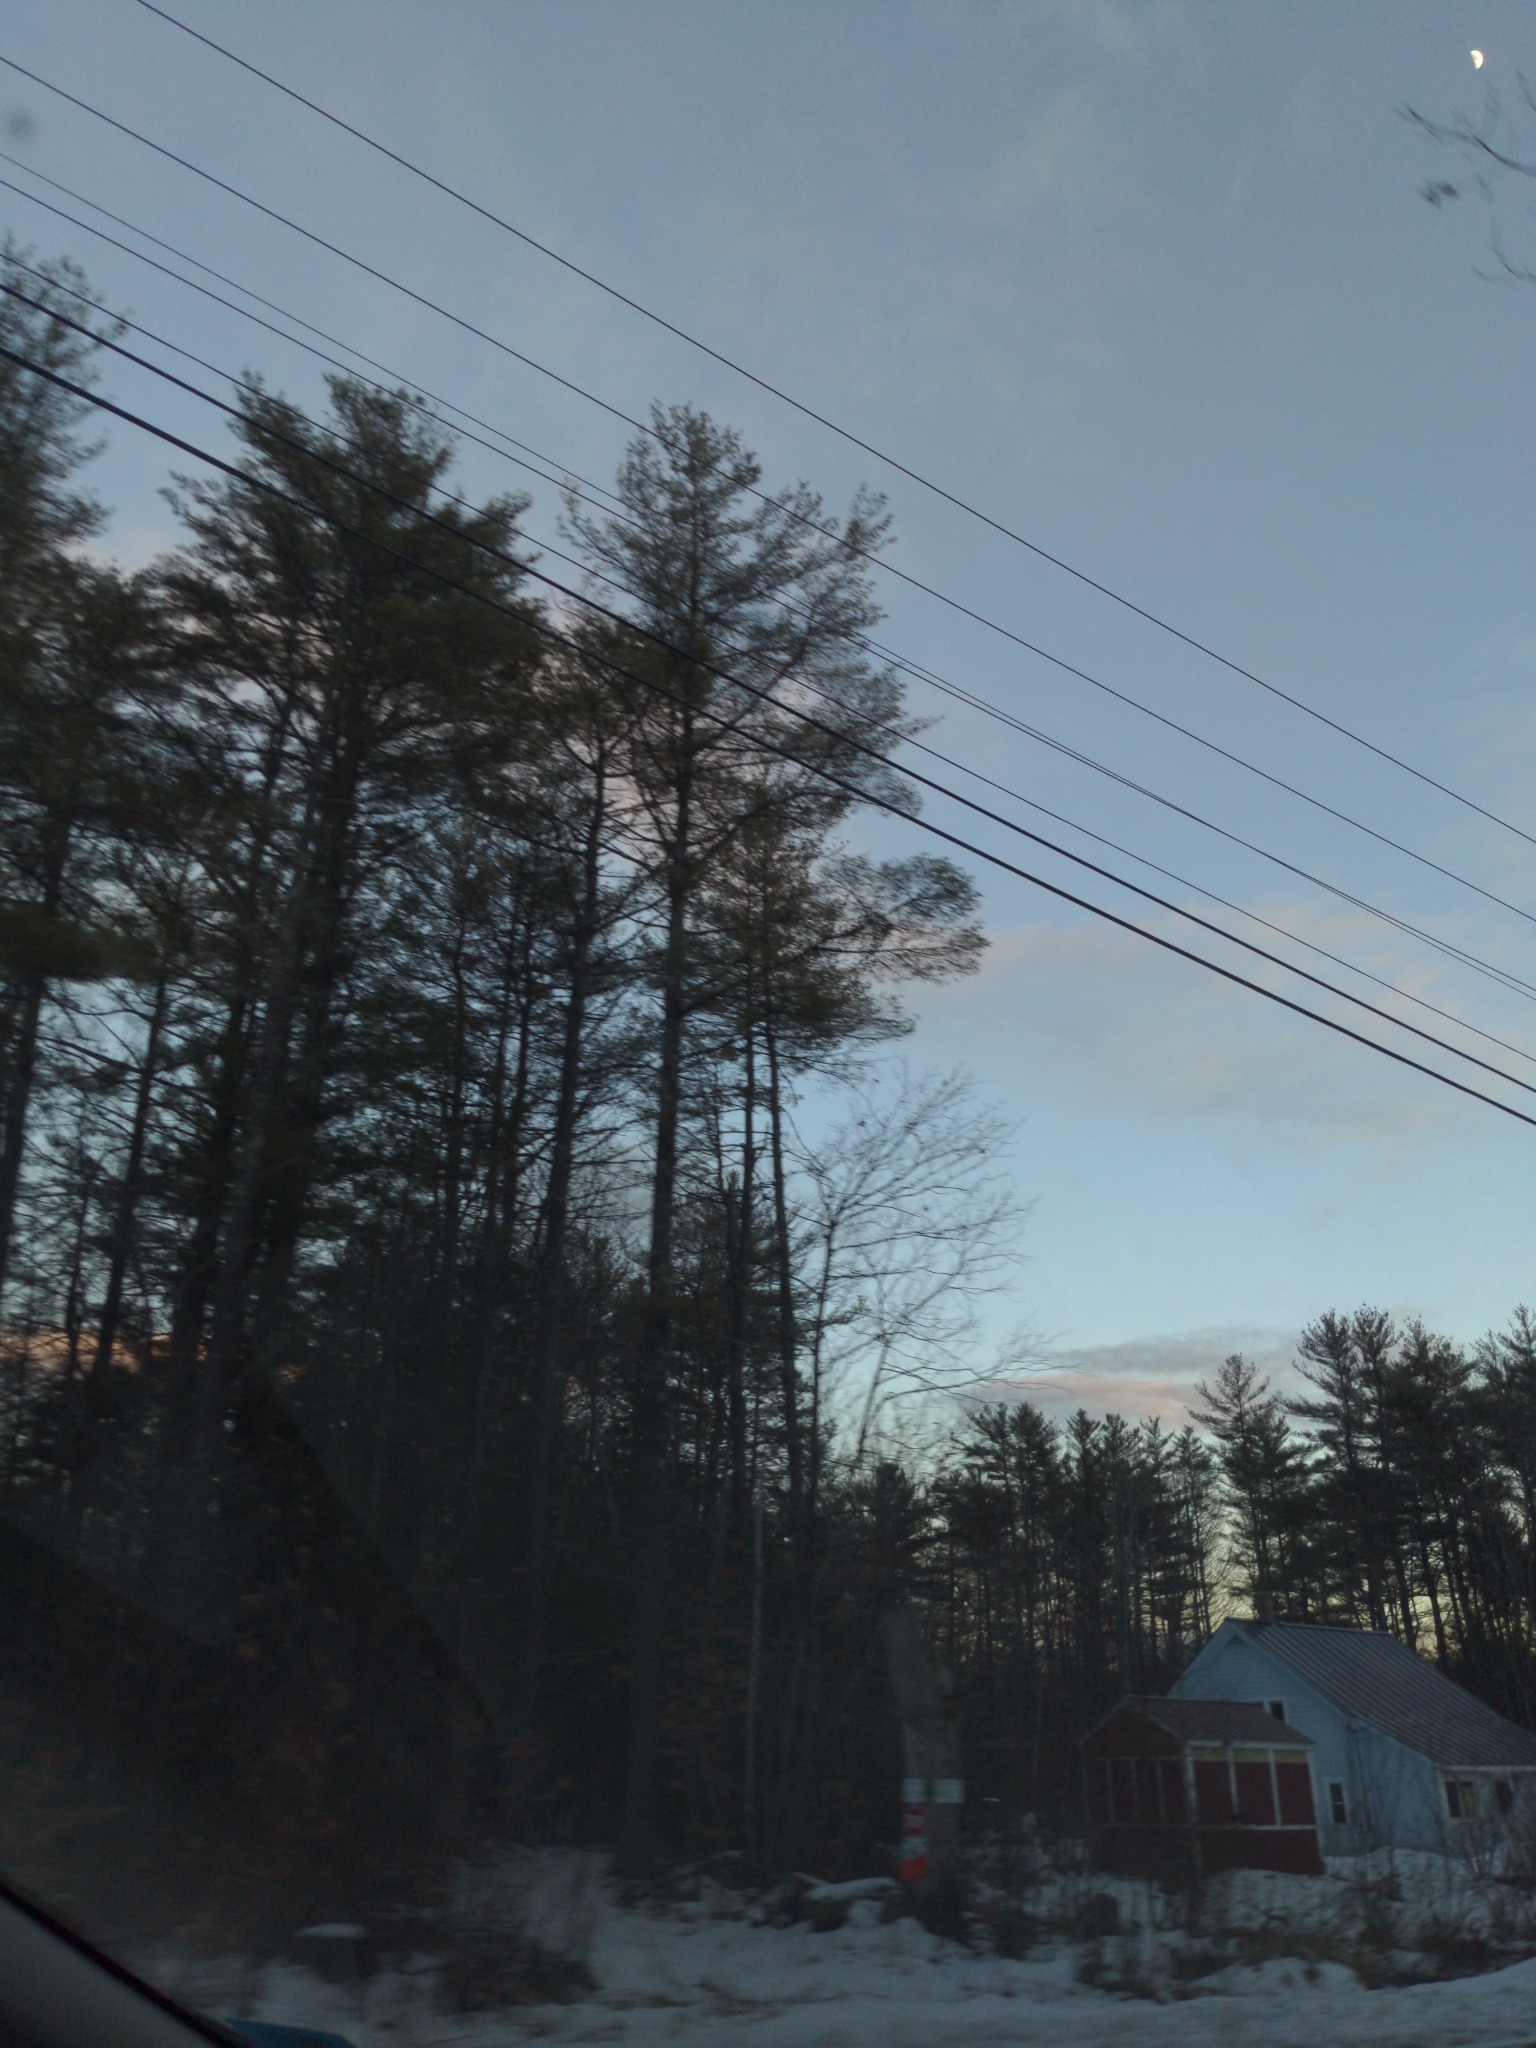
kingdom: Plantae
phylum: Tracheophyta
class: Pinopsida
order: Pinales
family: Pinaceae
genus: Pinus
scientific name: Pinus strobus
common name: Weymouth pine
